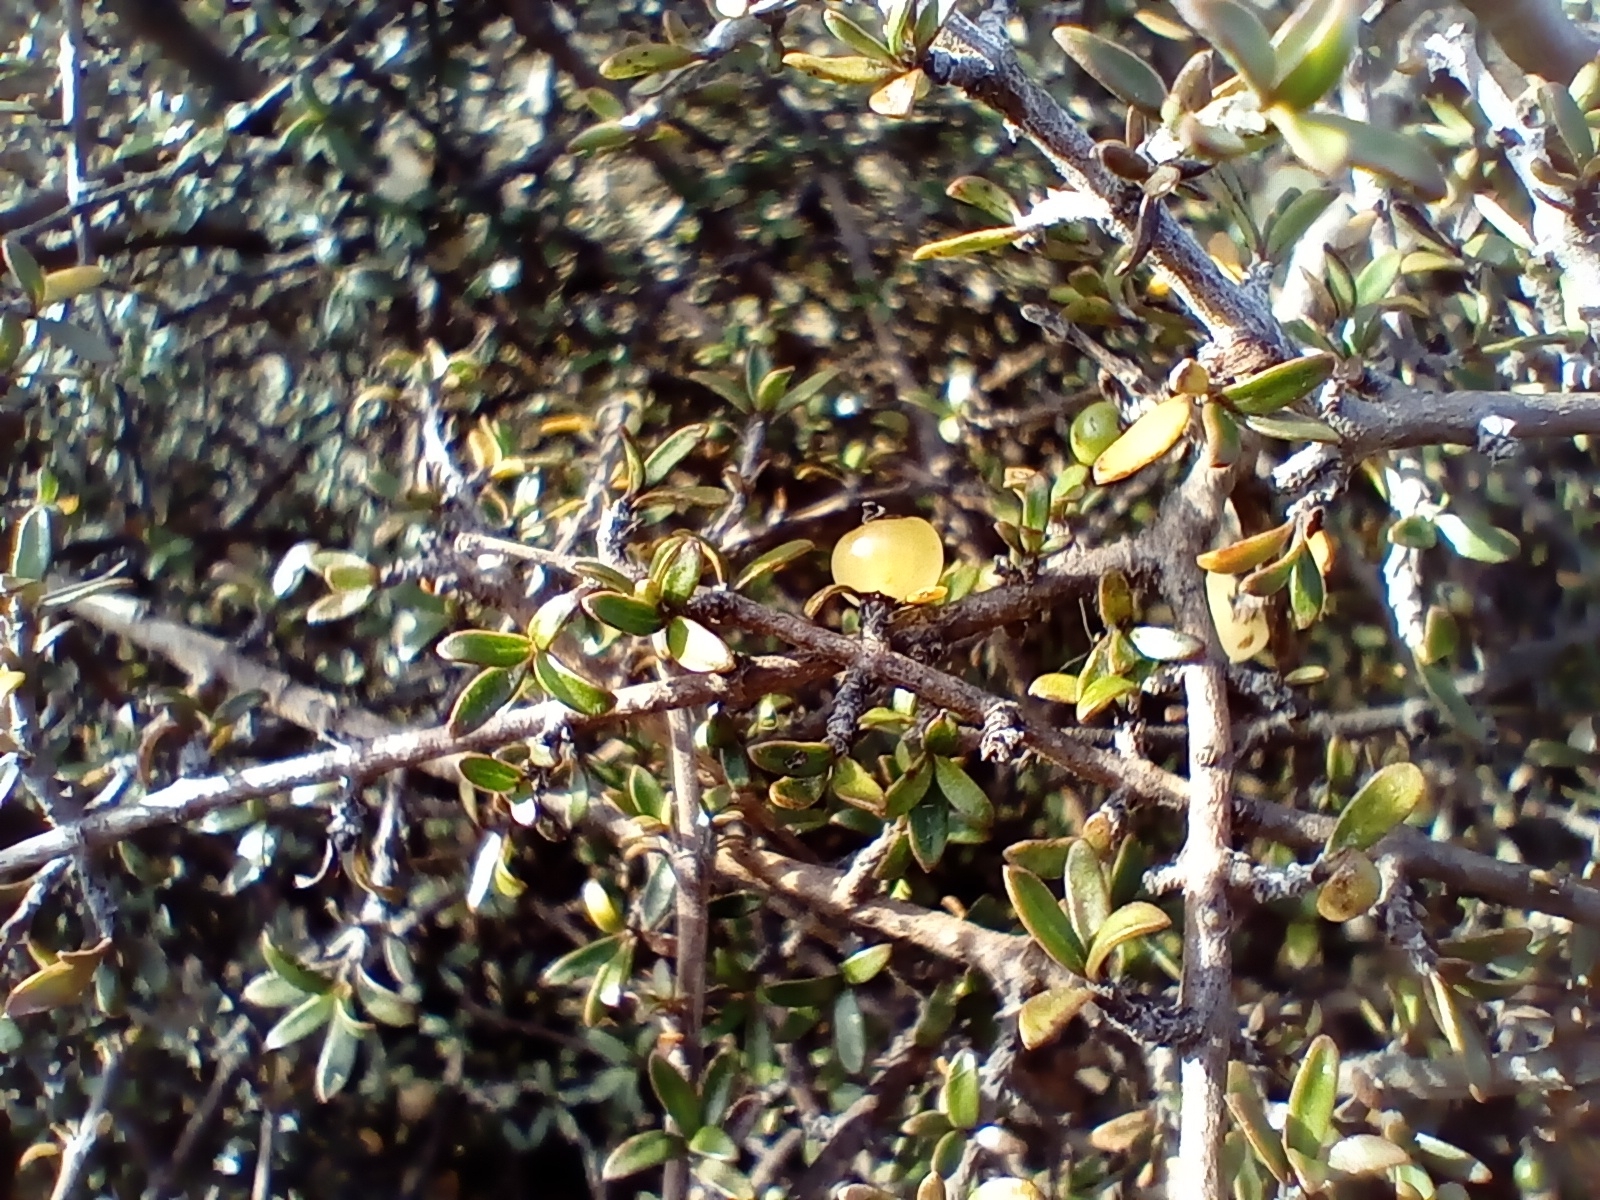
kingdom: Plantae
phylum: Tracheophyta
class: Magnoliopsida
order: Gentianales
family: Rubiaceae
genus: Coprosma
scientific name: Coprosma cheesemanii
